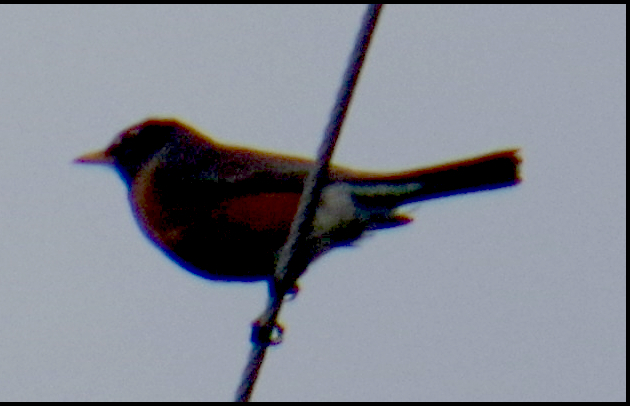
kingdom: Animalia
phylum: Chordata
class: Aves
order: Passeriformes
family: Turdidae
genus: Turdus
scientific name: Turdus migratorius
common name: American robin
